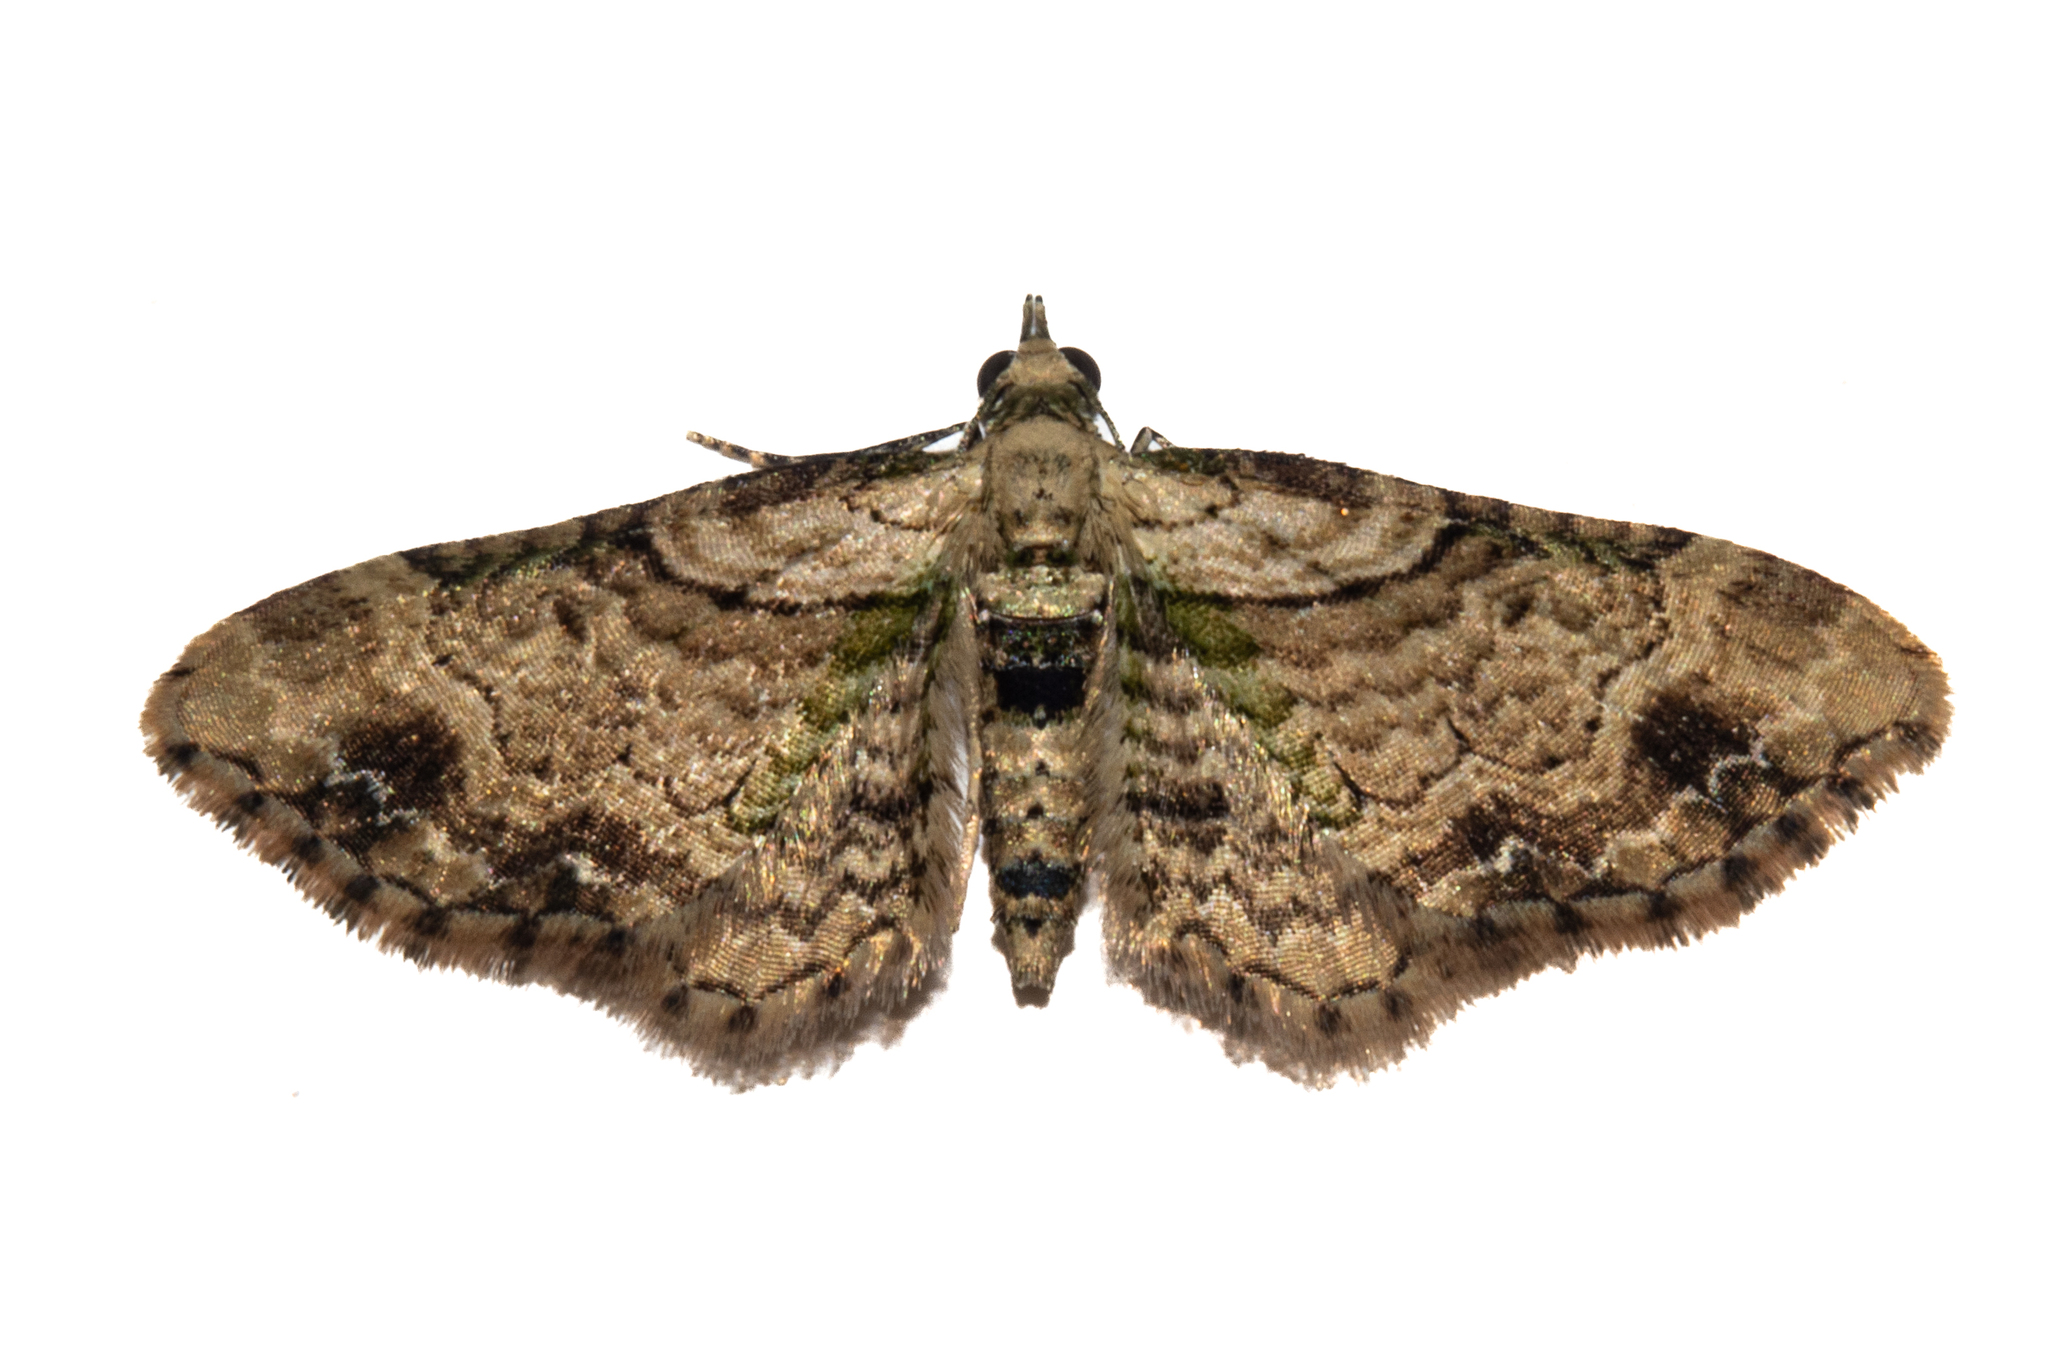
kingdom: Animalia
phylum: Arthropoda
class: Insecta
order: Lepidoptera
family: Geometridae
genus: Chloroclystis
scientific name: Chloroclystis
